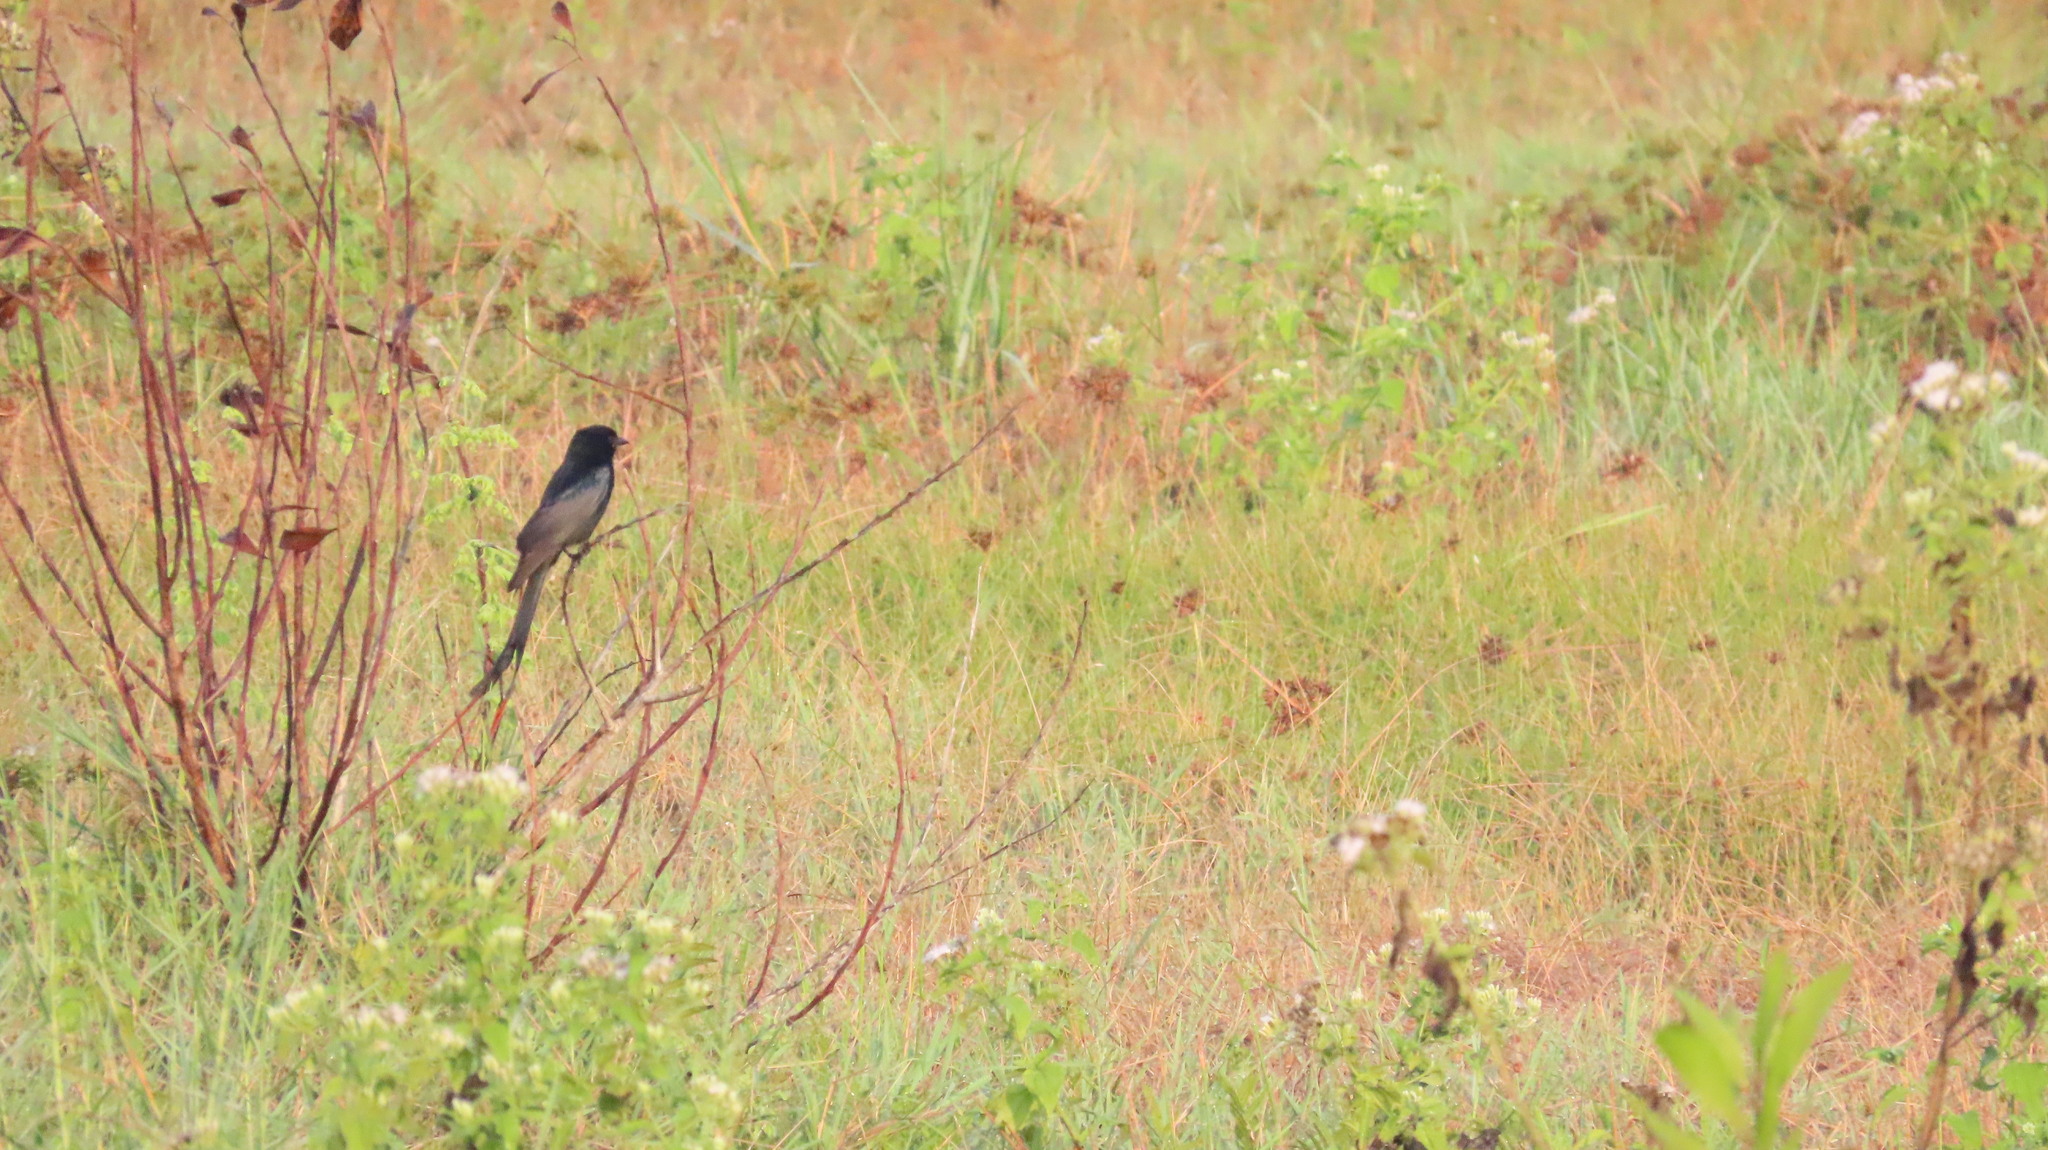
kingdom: Animalia
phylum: Chordata
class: Aves
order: Passeriformes
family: Dicruridae
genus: Dicrurus
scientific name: Dicrurus macrocercus
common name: Black drongo
